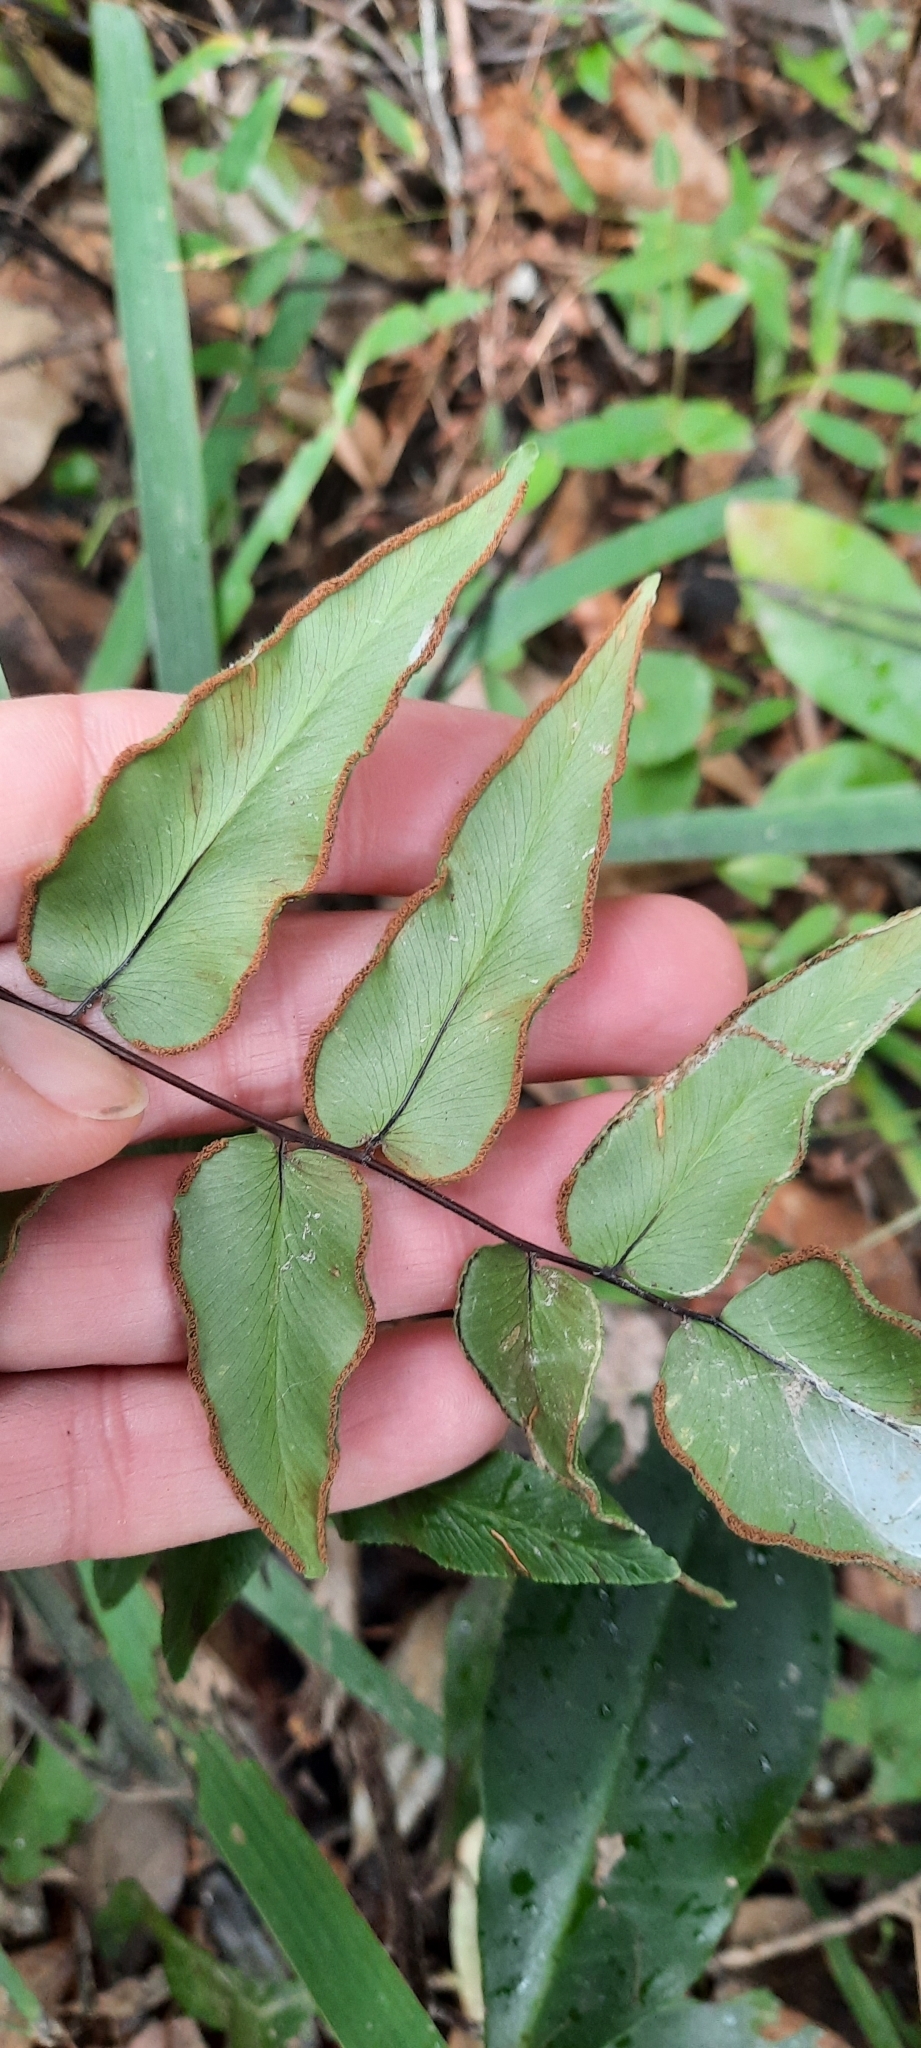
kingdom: Plantae
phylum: Tracheophyta
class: Polypodiopsida
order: Polypodiales
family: Pteridaceae
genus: Cheilanthes
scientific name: Cheilanthes viridis
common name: Green cliffbrake
